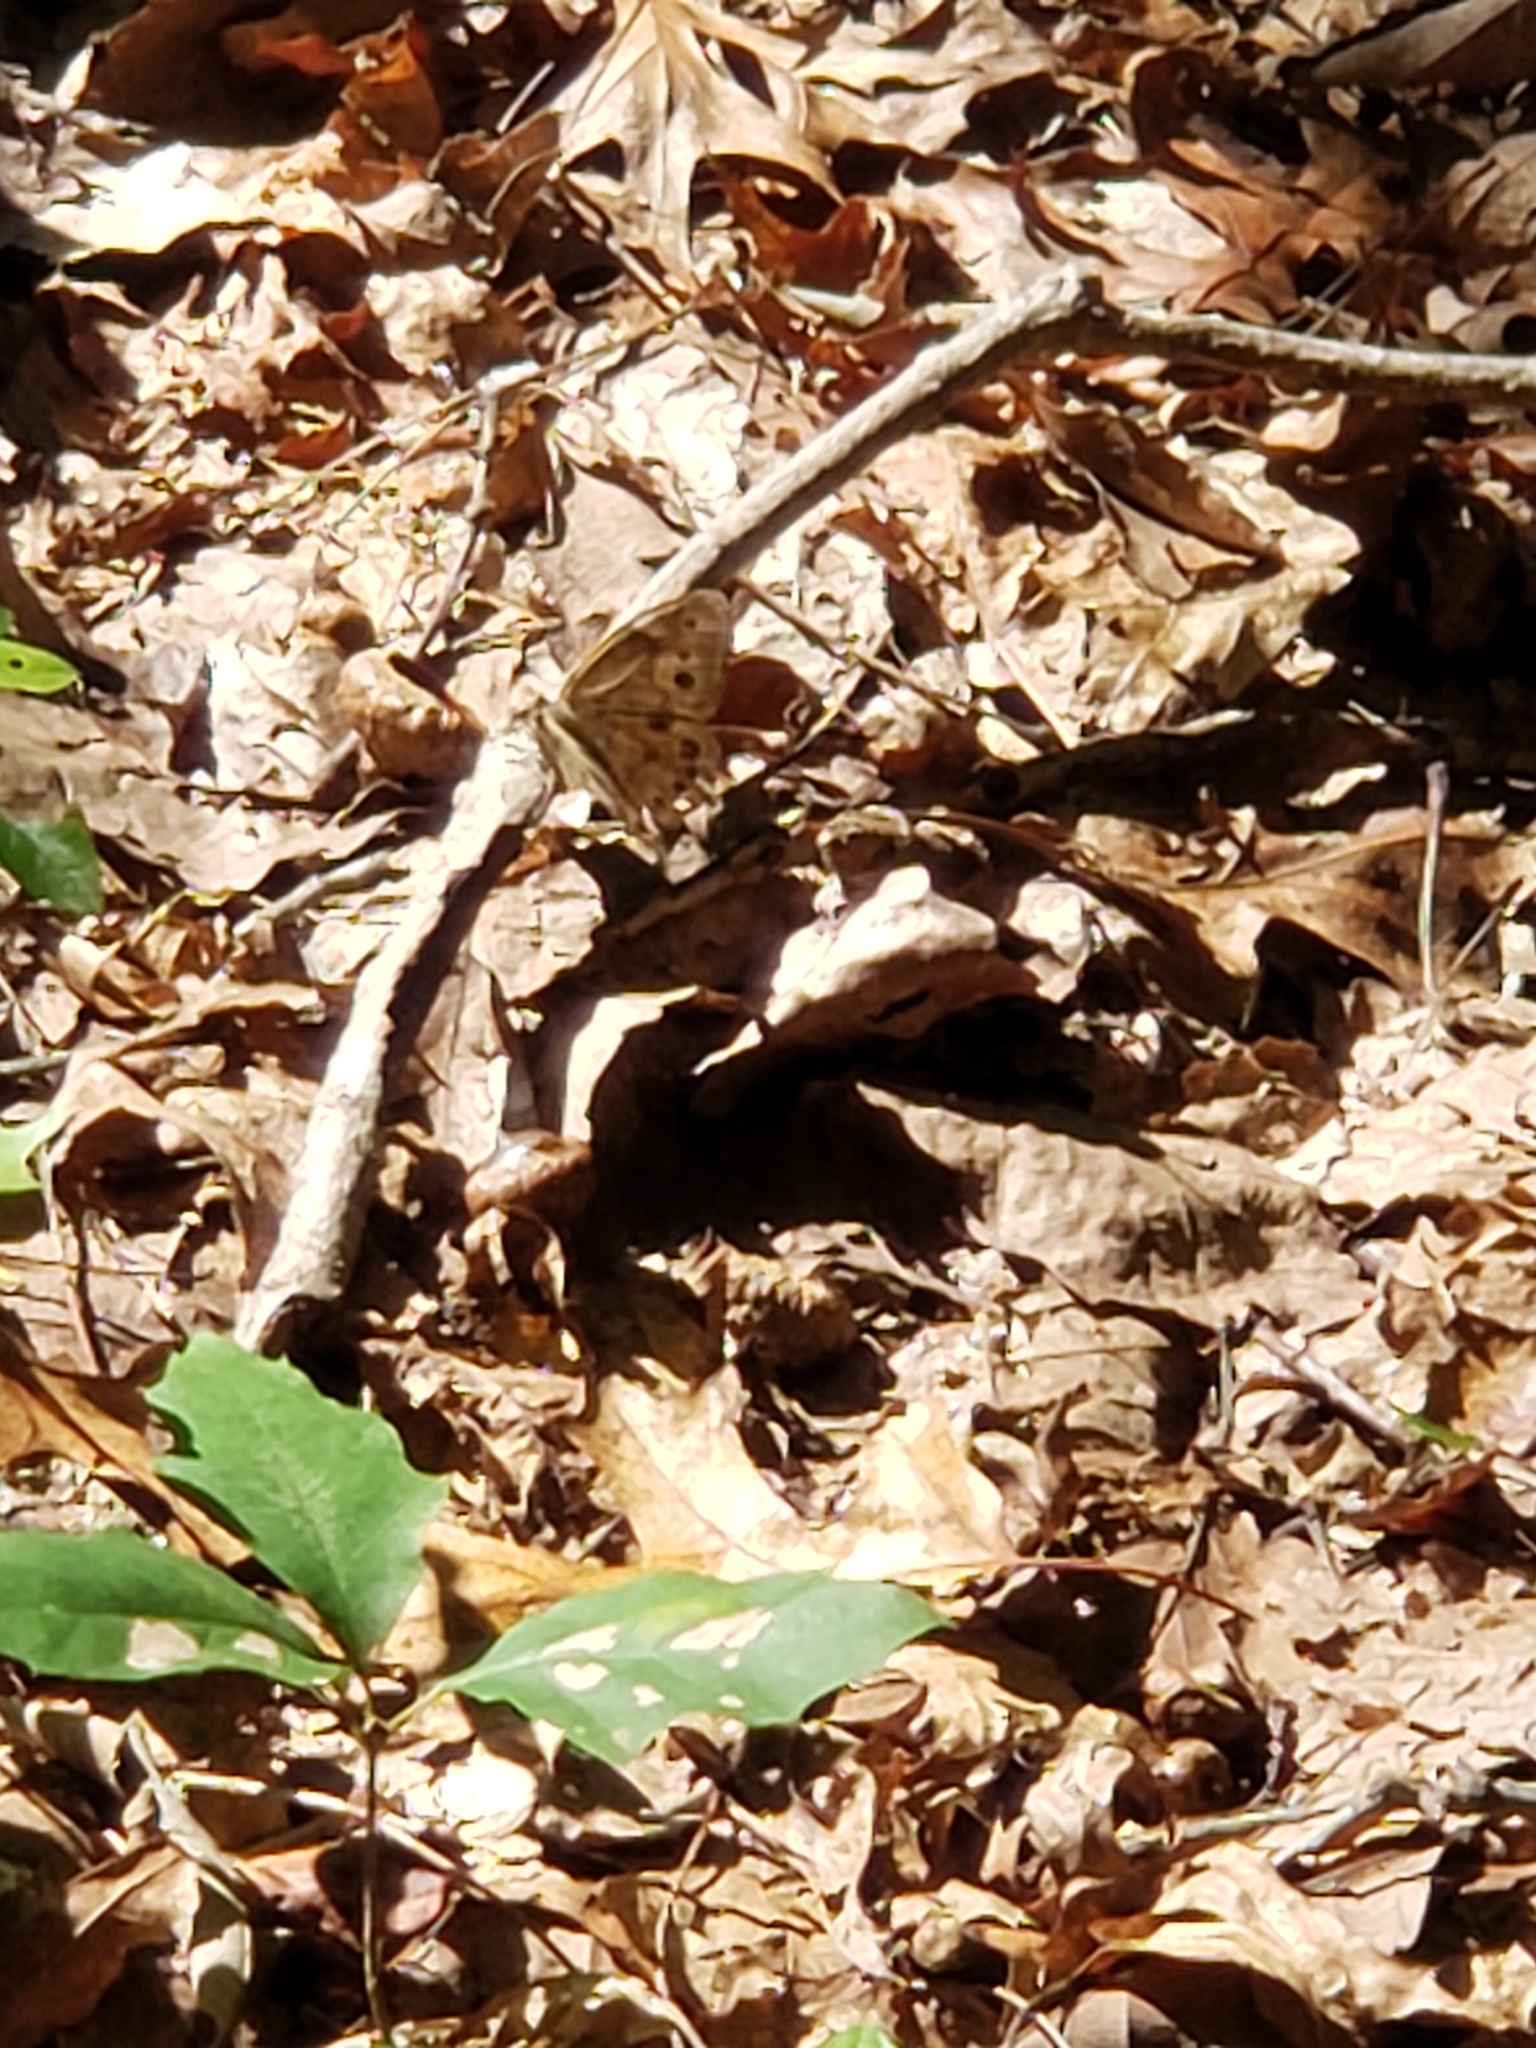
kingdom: Animalia
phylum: Arthropoda
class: Insecta
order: Lepidoptera
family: Nymphalidae
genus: Lethe
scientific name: Lethe anthedon
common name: Northern pearly-eye
